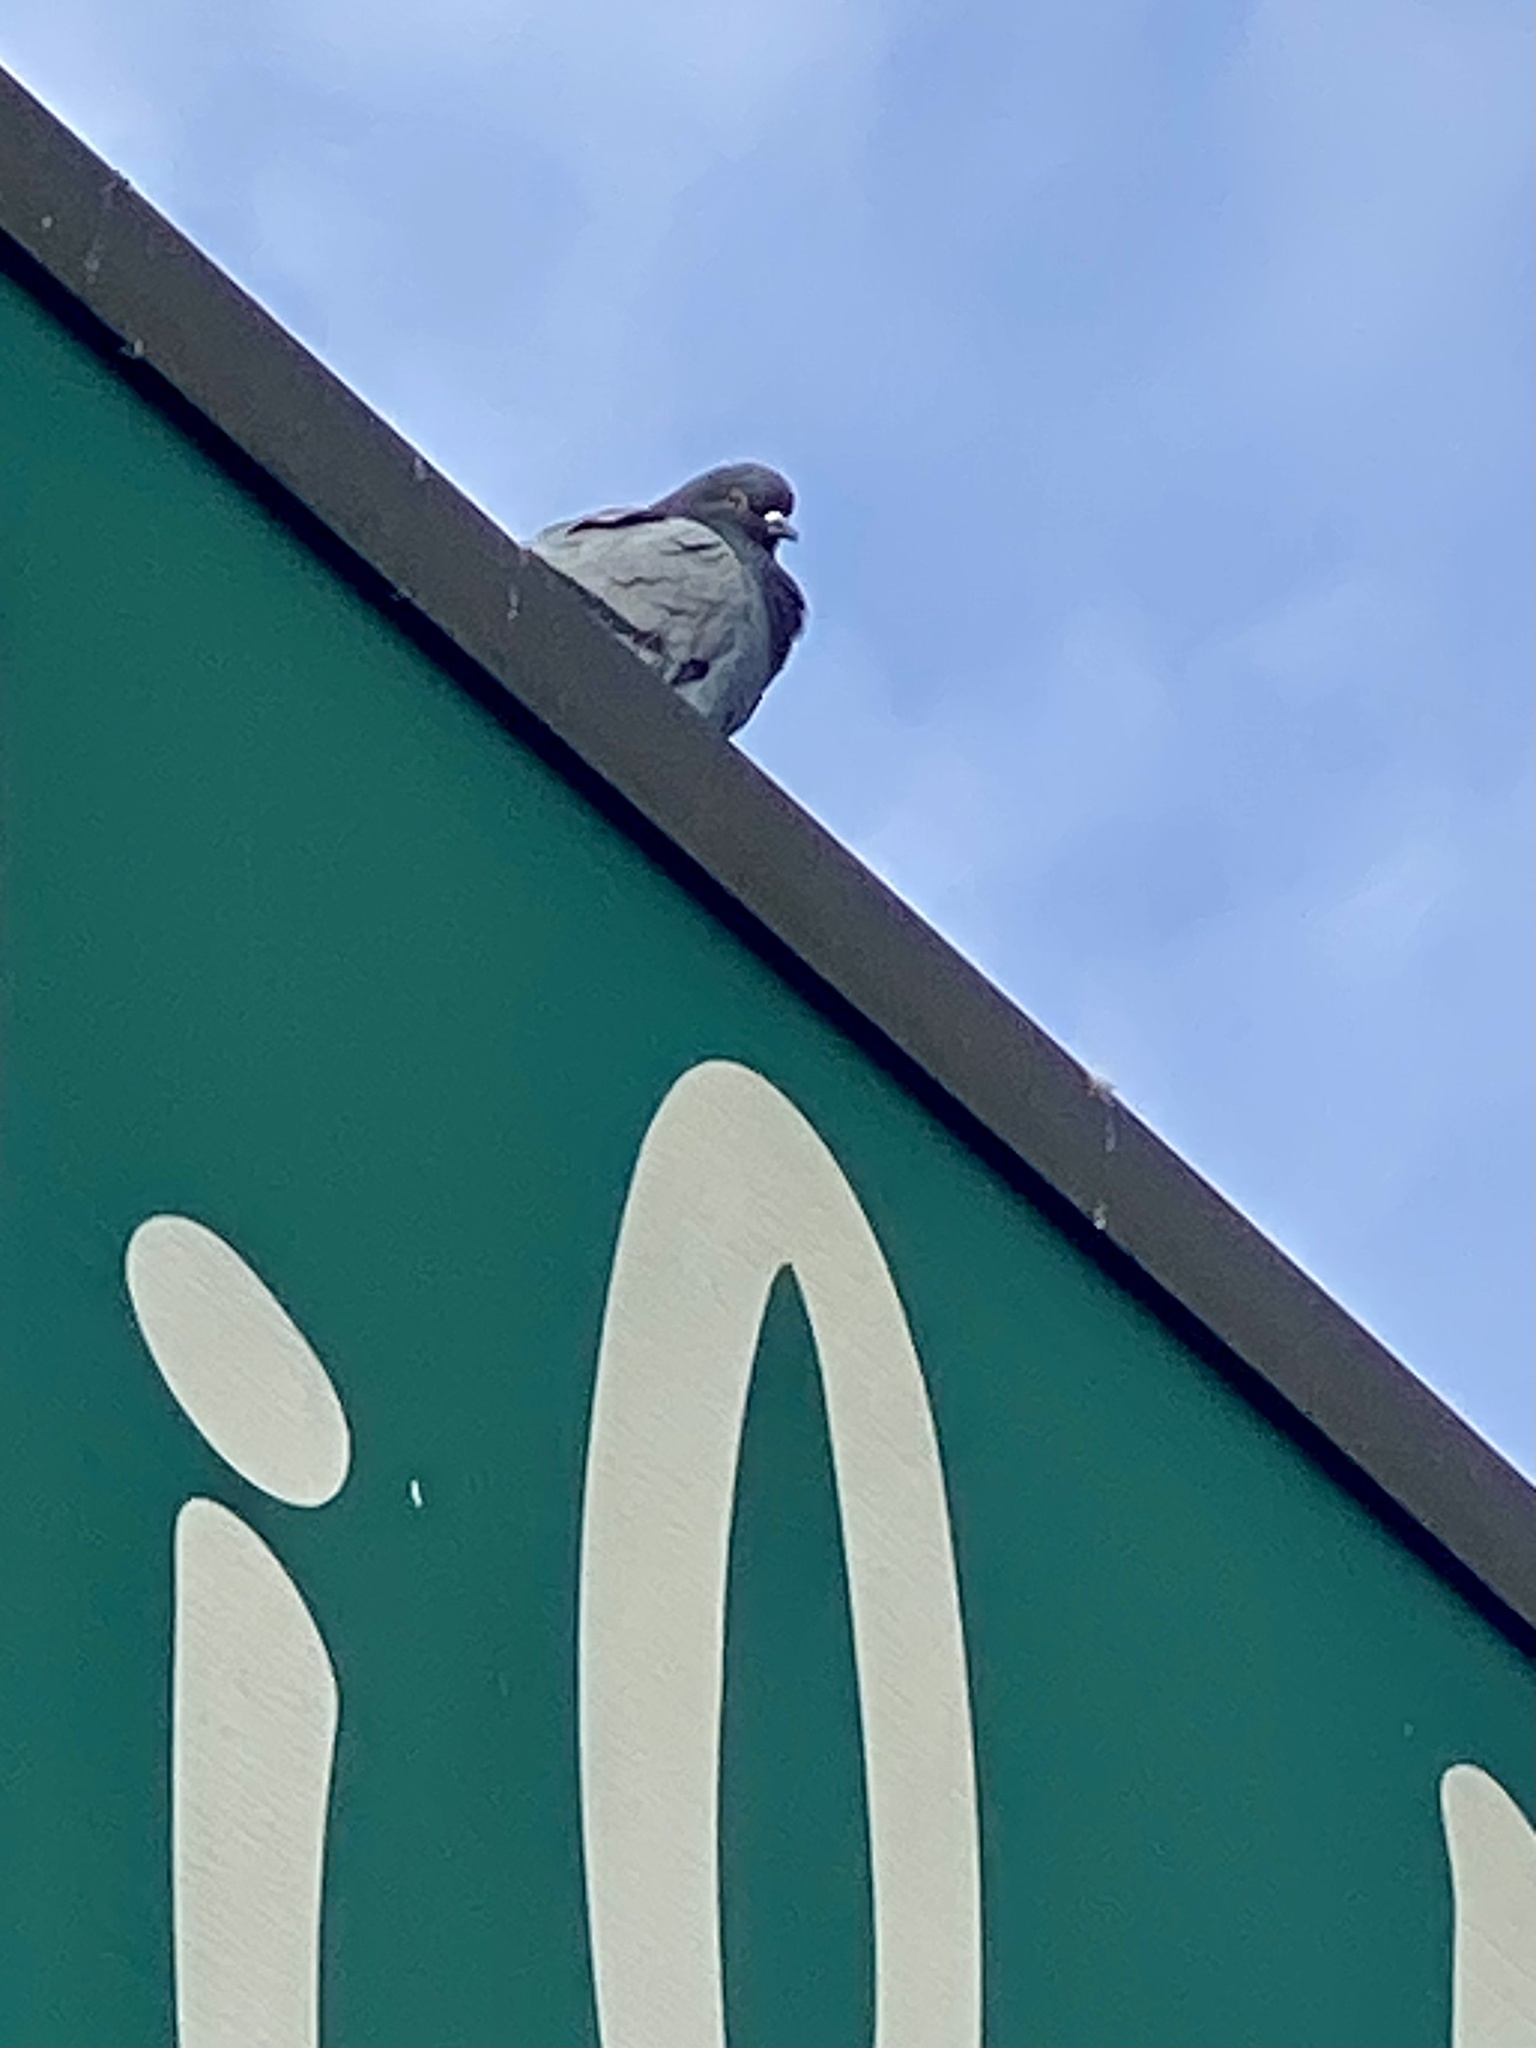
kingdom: Animalia
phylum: Chordata
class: Aves
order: Columbiformes
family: Columbidae
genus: Columba
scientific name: Columba livia
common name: Rock pigeon
